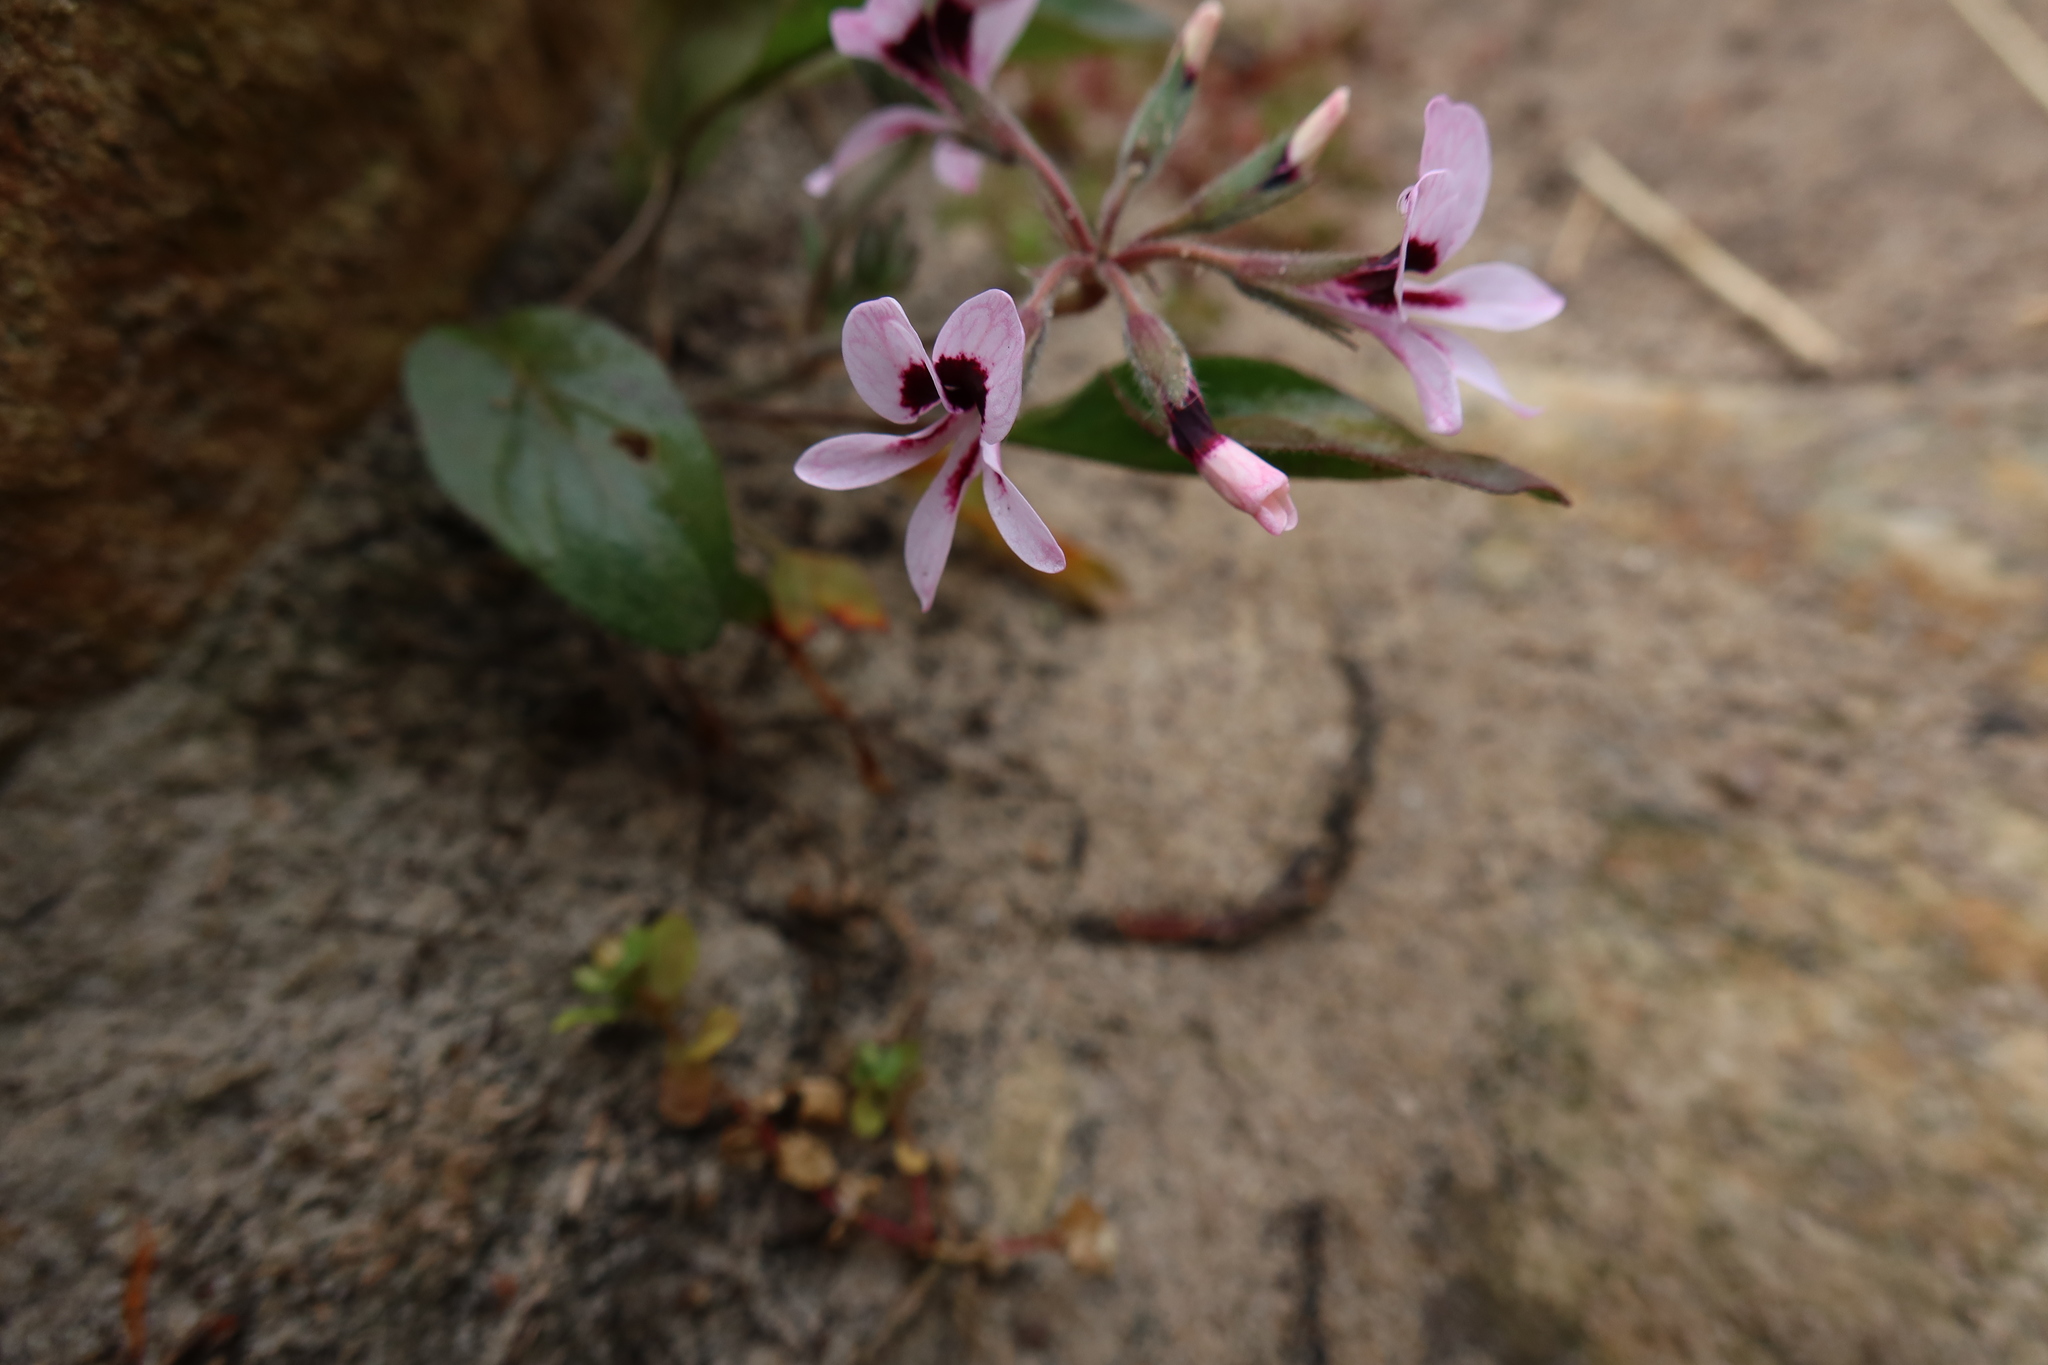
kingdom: Plantae
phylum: Tracheophyta
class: Magnoliopsida
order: Geraniales
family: Geraniaceae
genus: Pelargonium
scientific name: Pelargonium psammophilum
